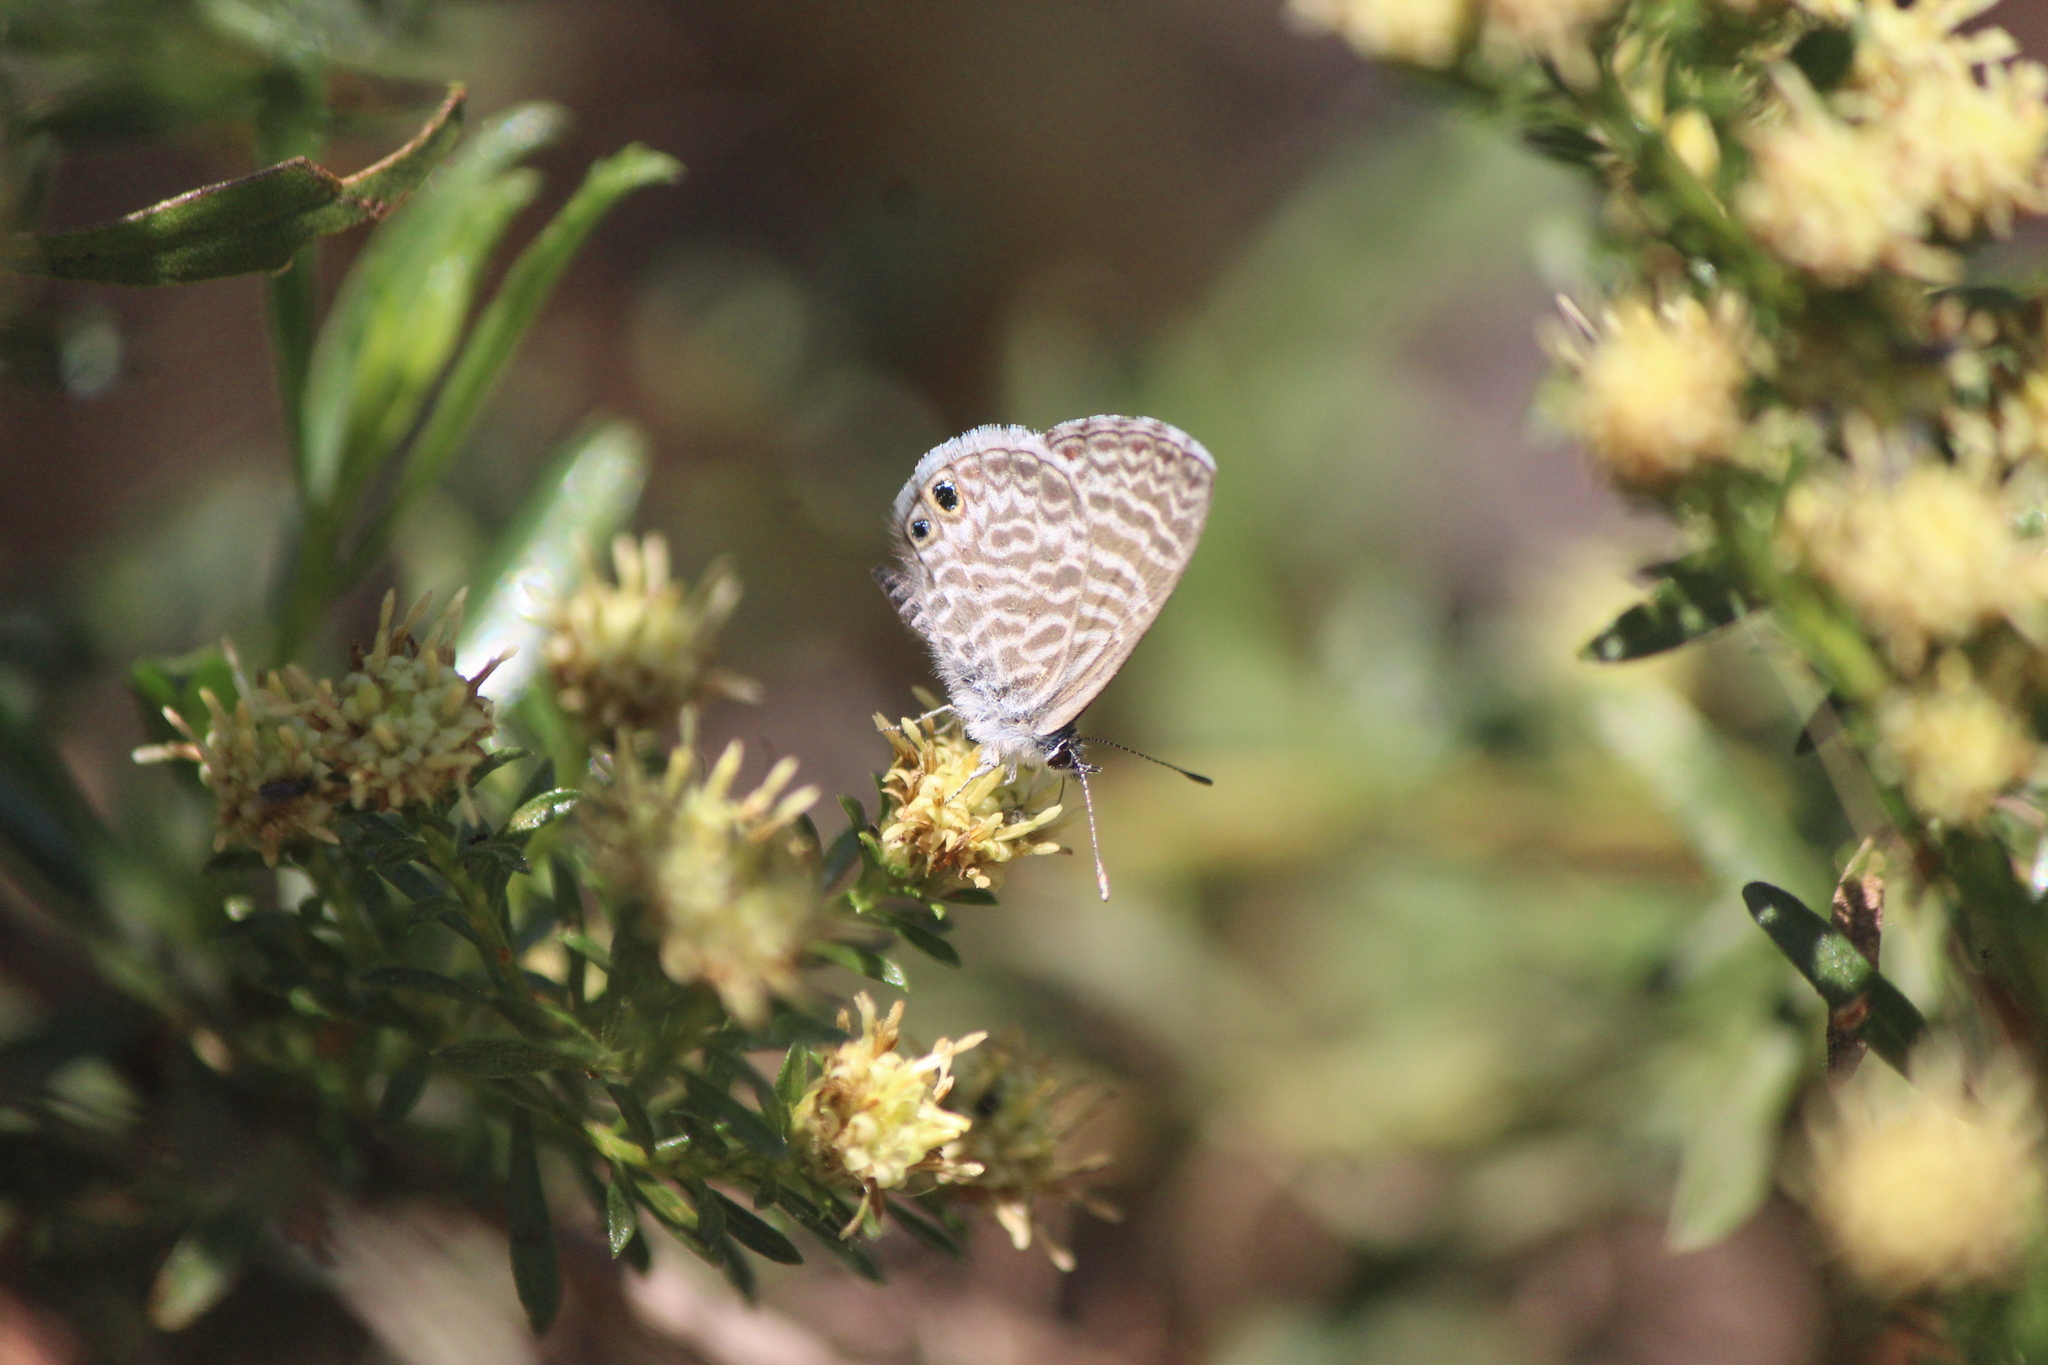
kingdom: Animalia
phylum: Arthropoda
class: Insecta
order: Lepidoptera
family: Lycaenidae
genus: Leptotes
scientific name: Leptotes marina
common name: Marine blue
